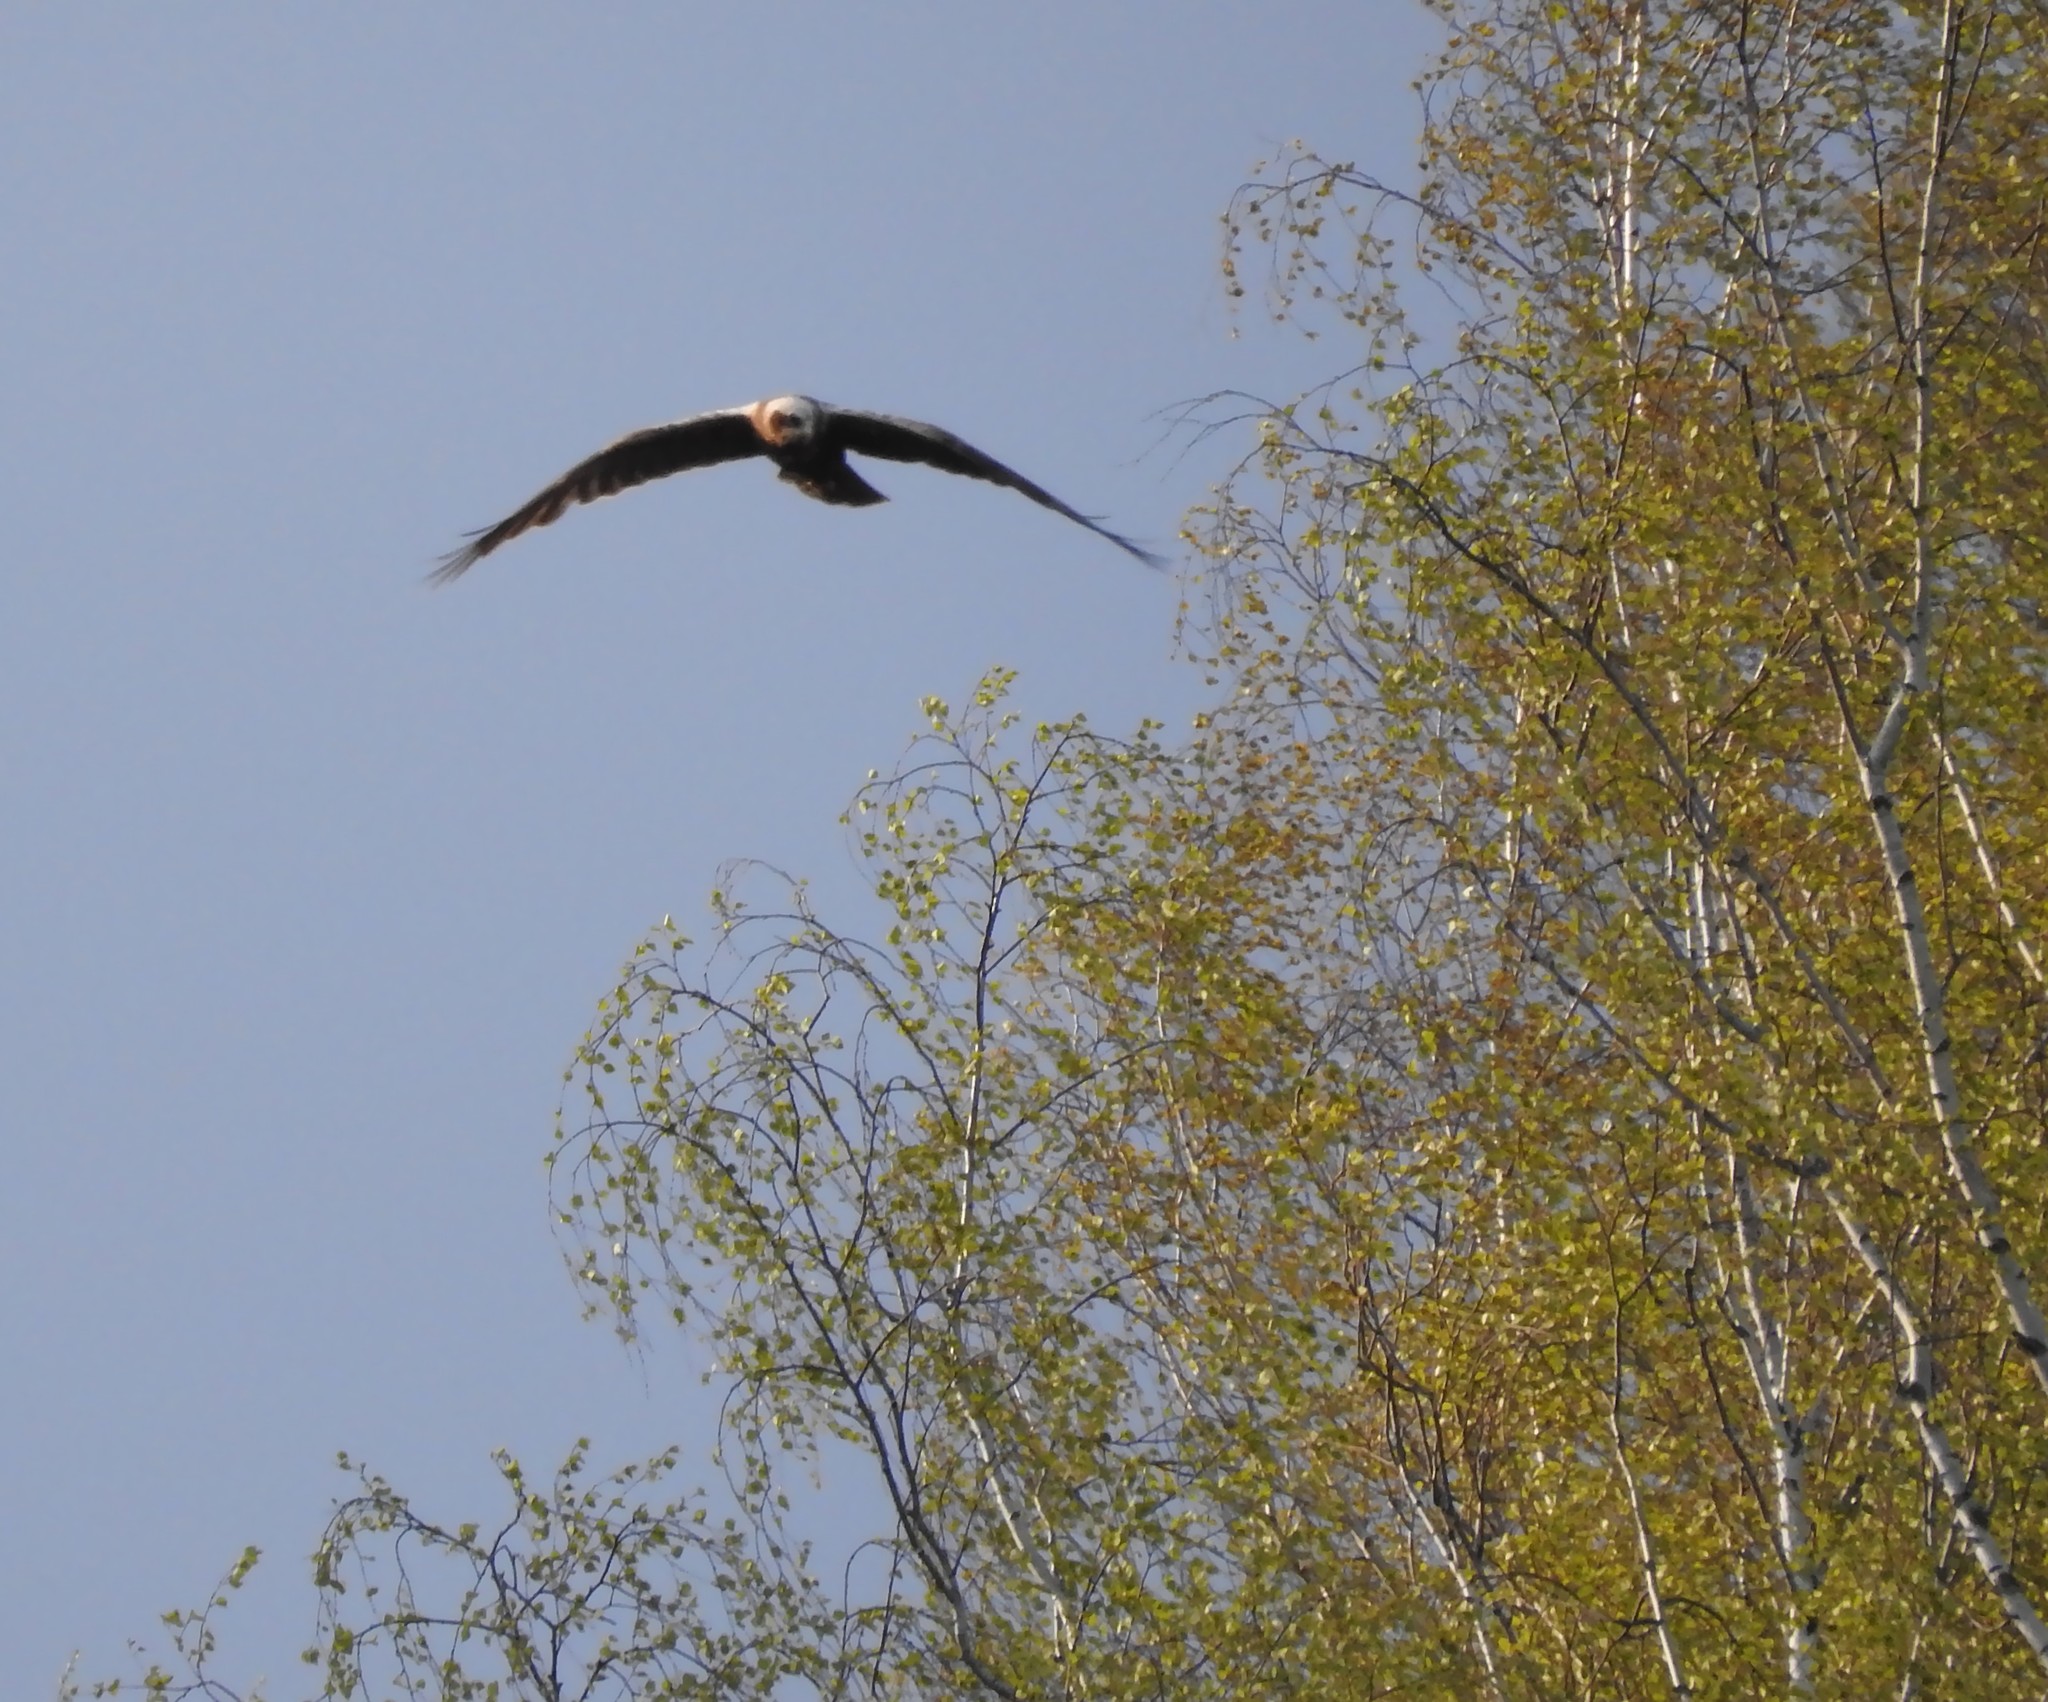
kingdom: Animalia
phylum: Chordata
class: Aves
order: Accipitriformes
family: Accipitridae
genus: Circus
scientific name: Circus aeruginosus
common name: Western marsh harrier
